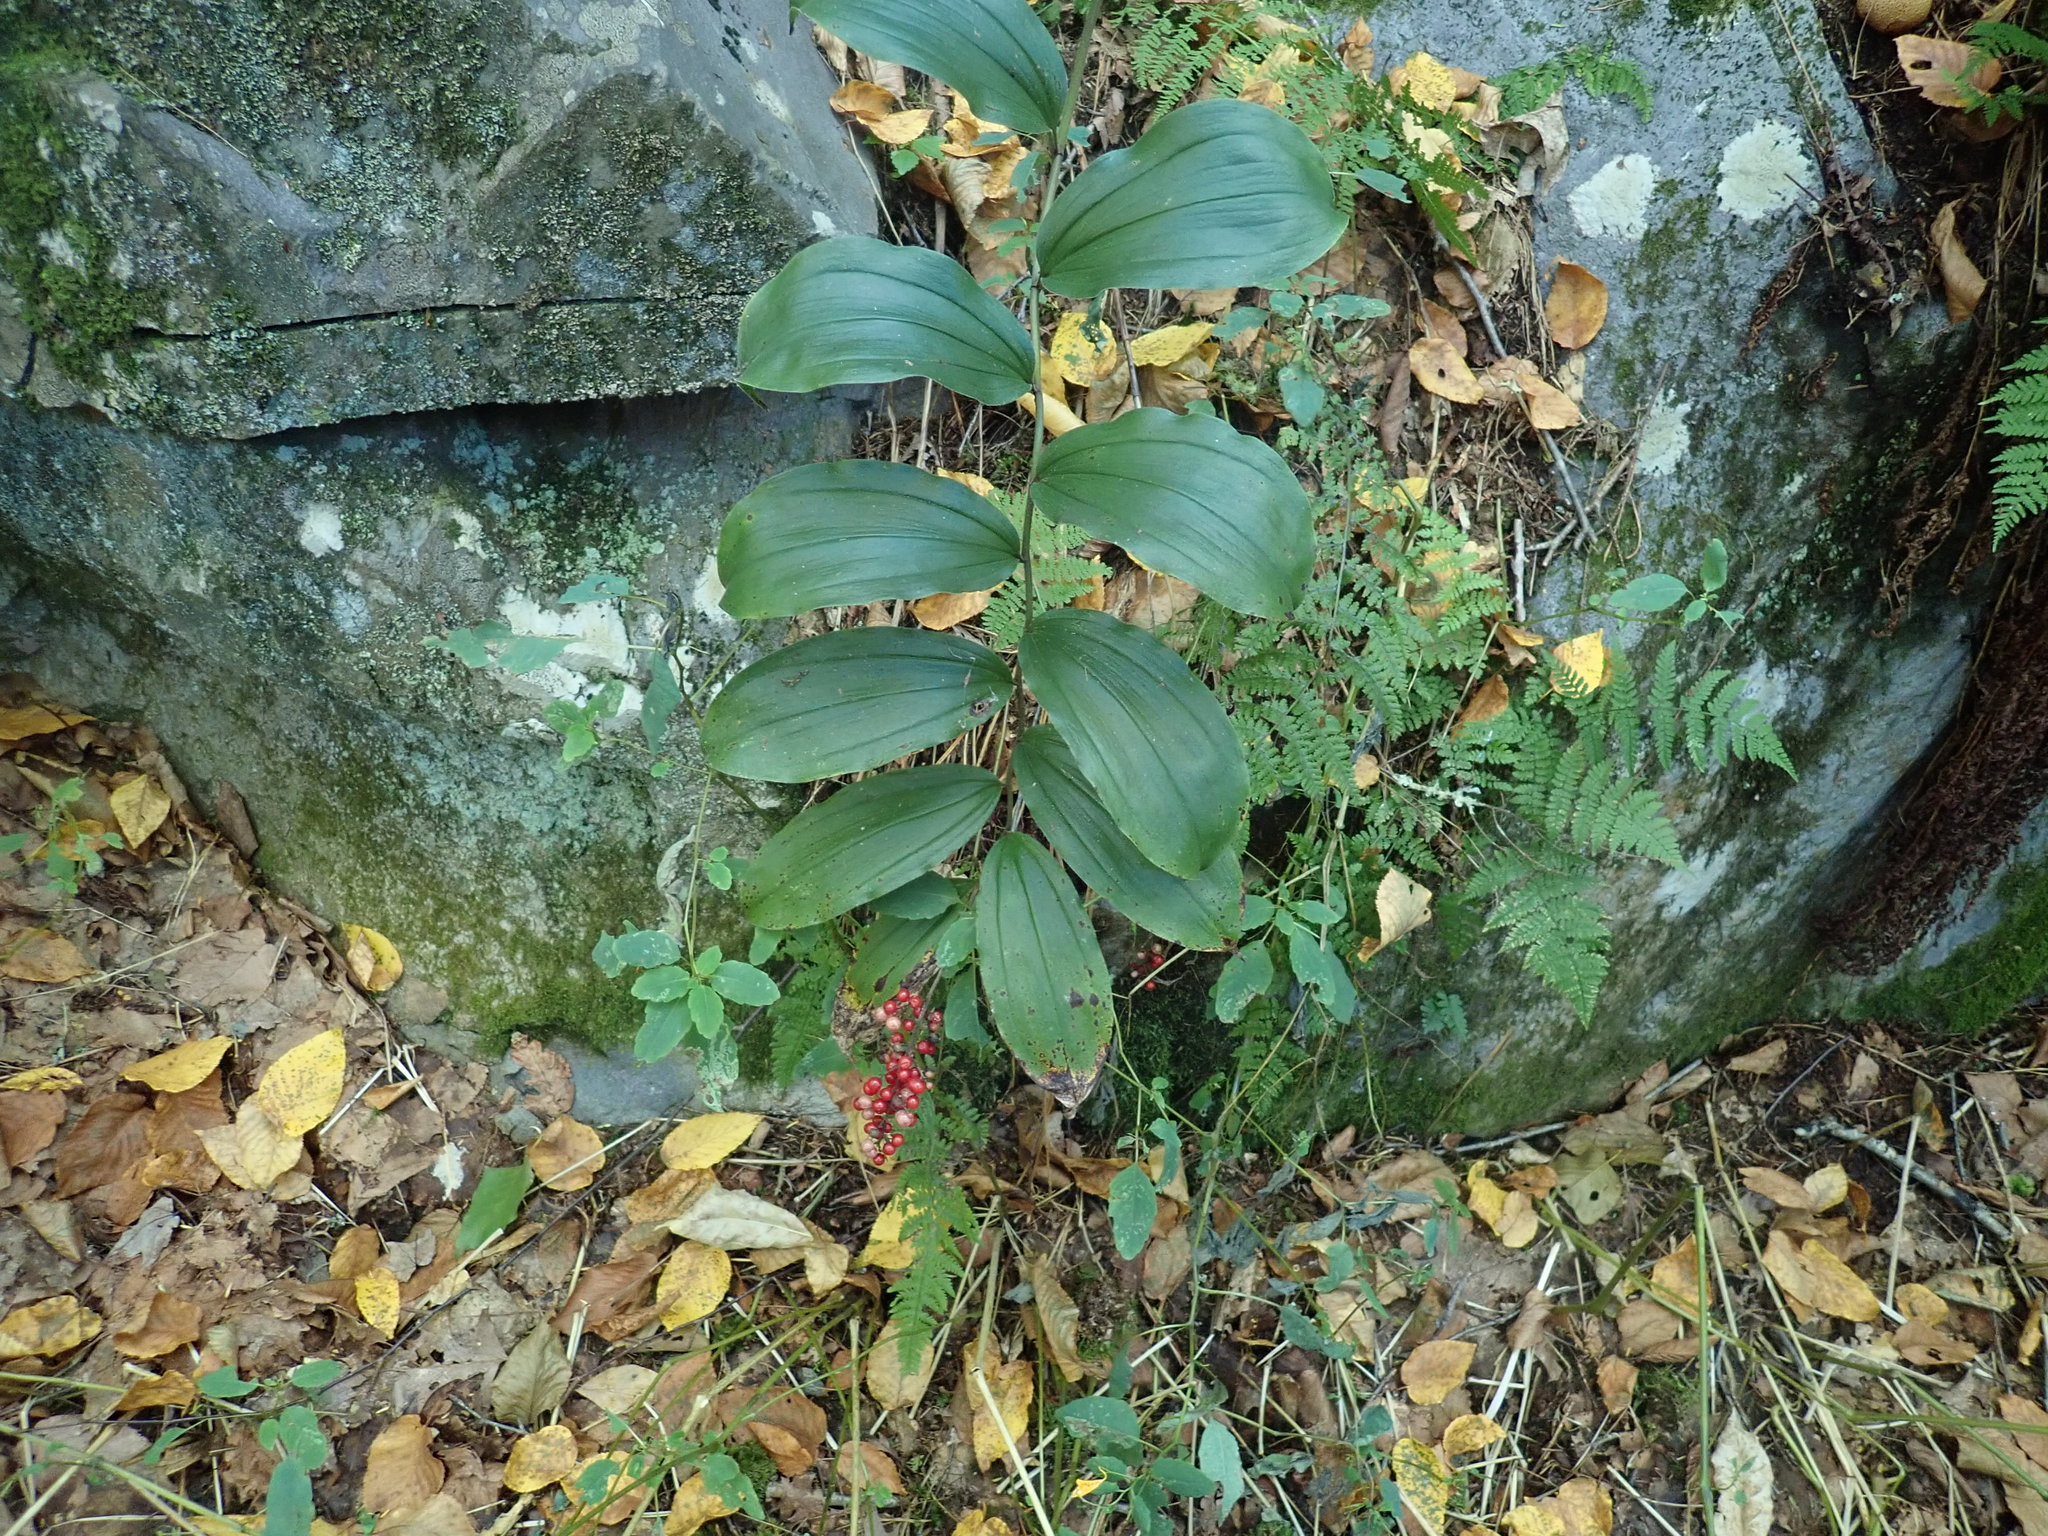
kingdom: Plantae
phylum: Tracheophyta
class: Liliopsida
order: Asparagales
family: Asparagaceae
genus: Maianthemum
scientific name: Maianthemum racemosum
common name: False spikenard
